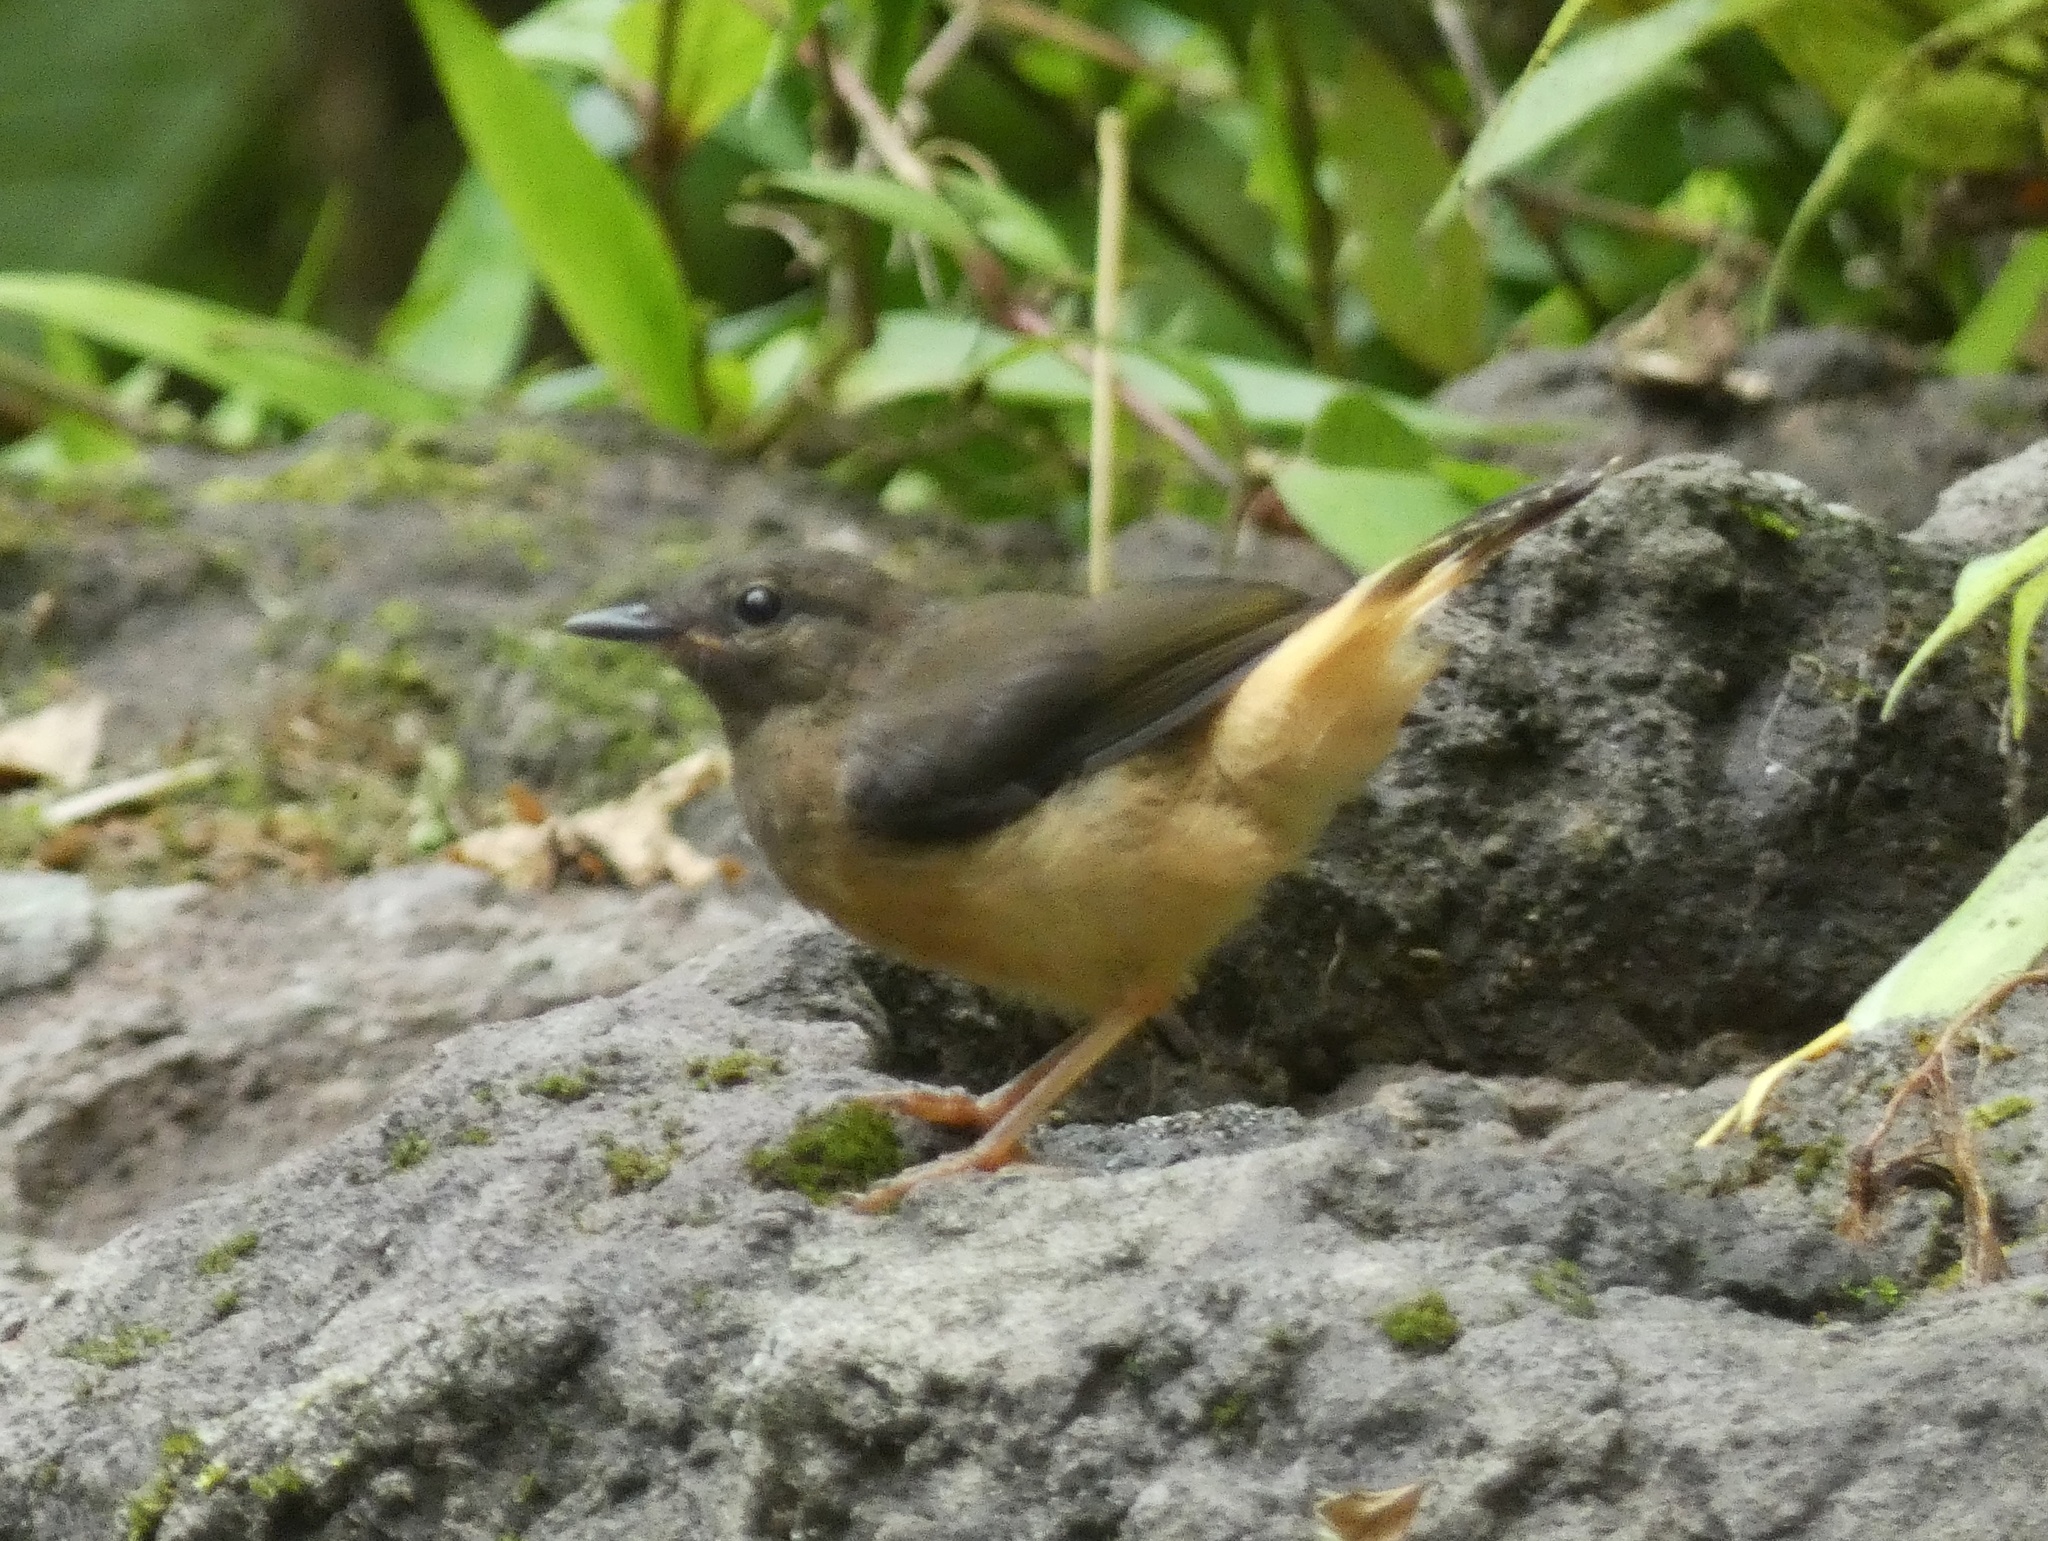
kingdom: Animalia
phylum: Chordata
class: Aves
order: Passeriformes
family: Parulidae
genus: Myiothlypis
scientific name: Myiothlypis fulvicauda
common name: Buff-rumped warbler
